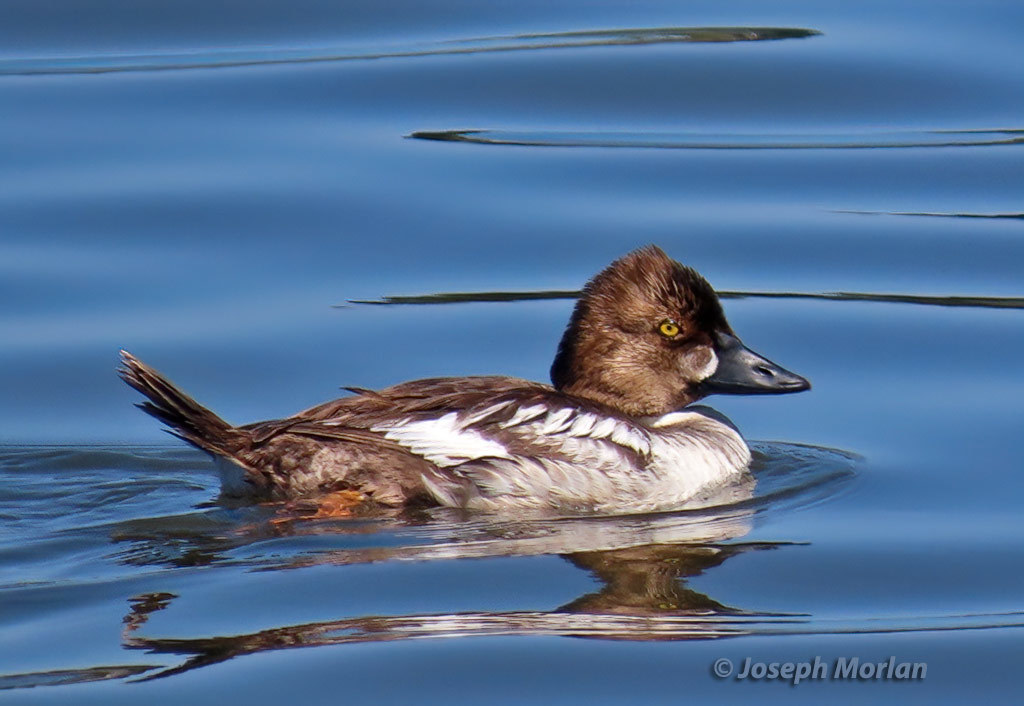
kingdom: Animalia
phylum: Chordata
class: Aves
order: Anseriformes
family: Anatidae
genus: Bucephala
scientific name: Bucephala clangula
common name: Common goldeneye
